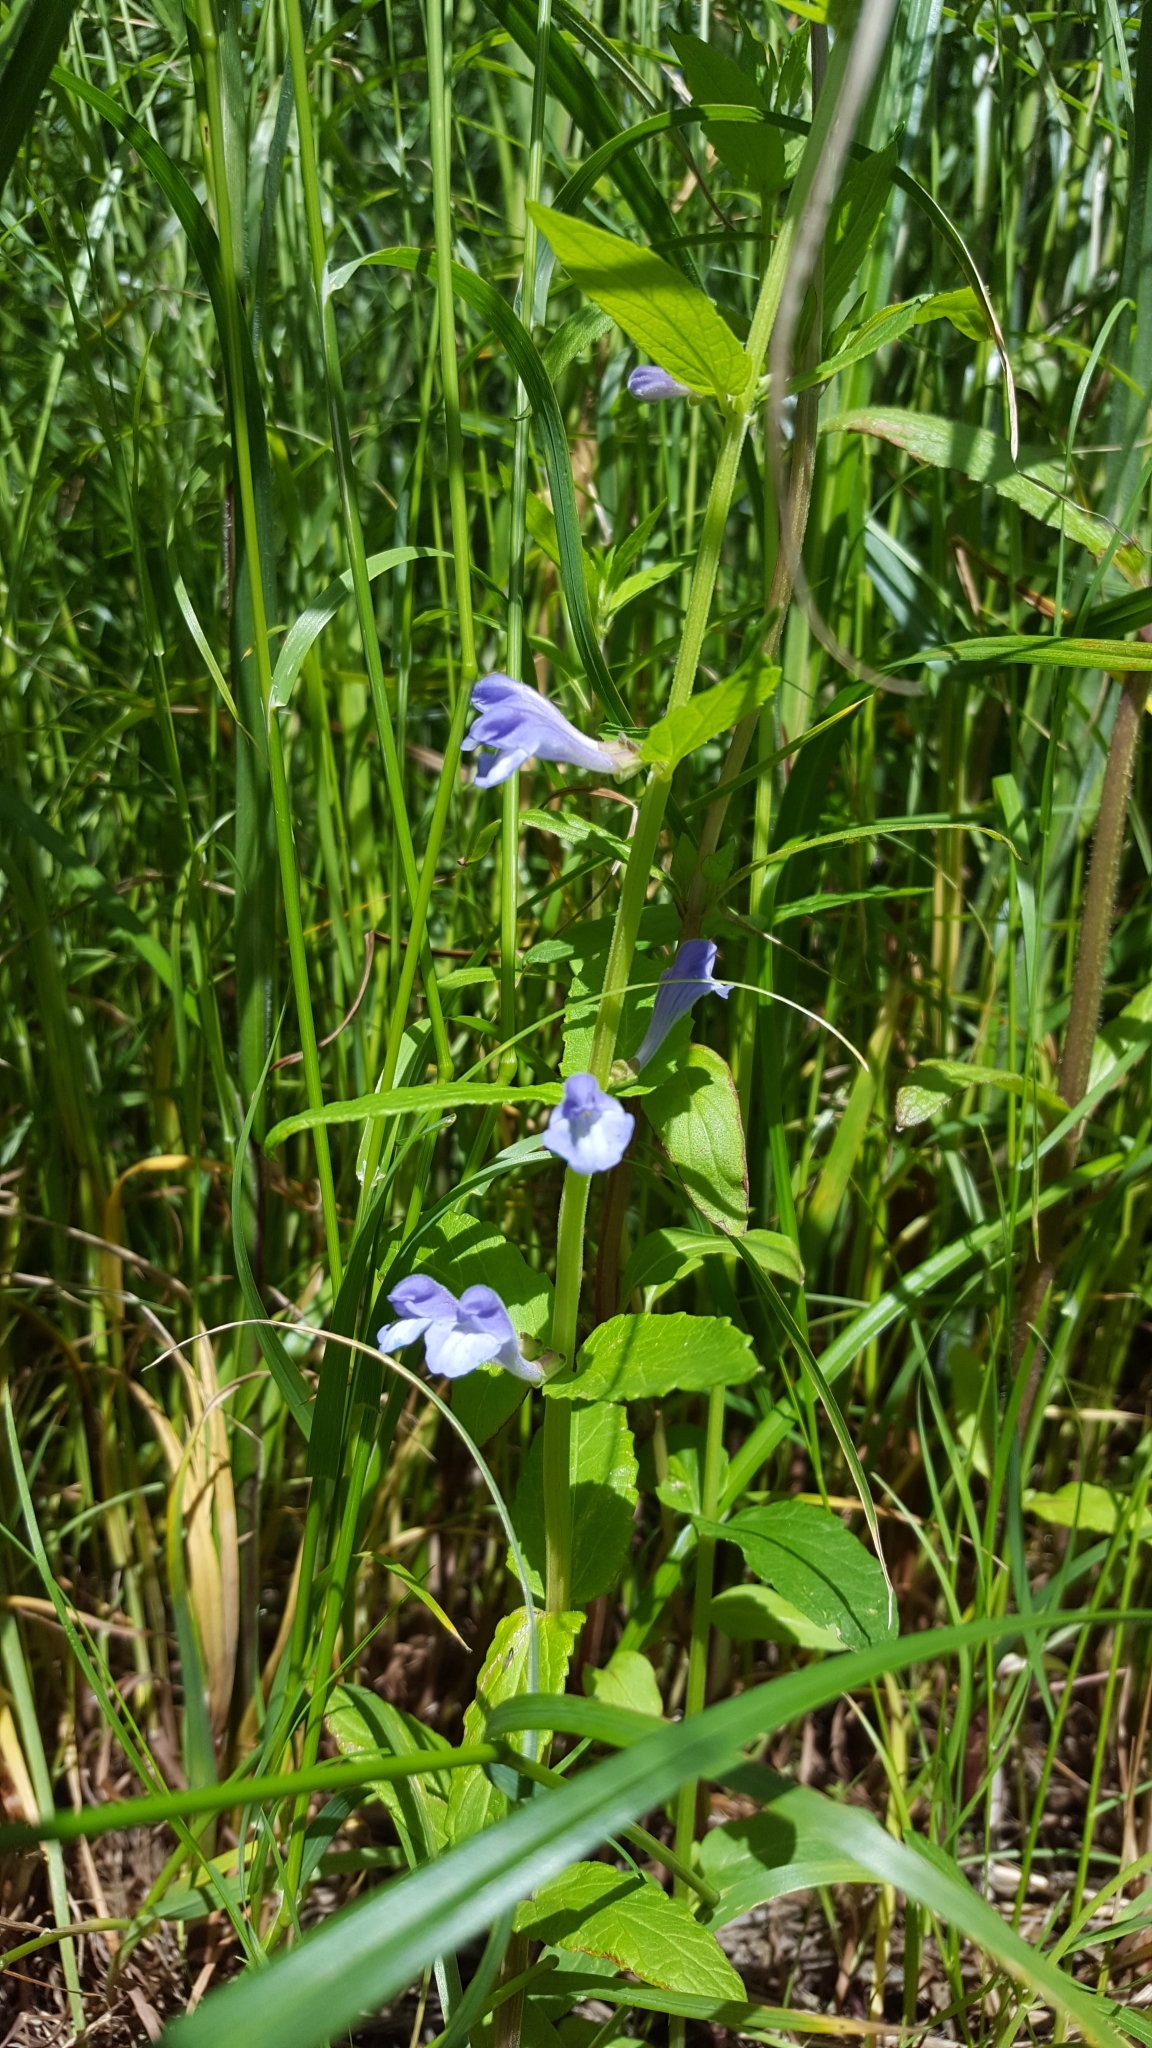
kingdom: Plantae
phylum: Tracheophyta
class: Magnoliopsida
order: Lamiales
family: Lamiaceae
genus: Scutellaria
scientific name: Scutellaria galericulata
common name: Skullcap
